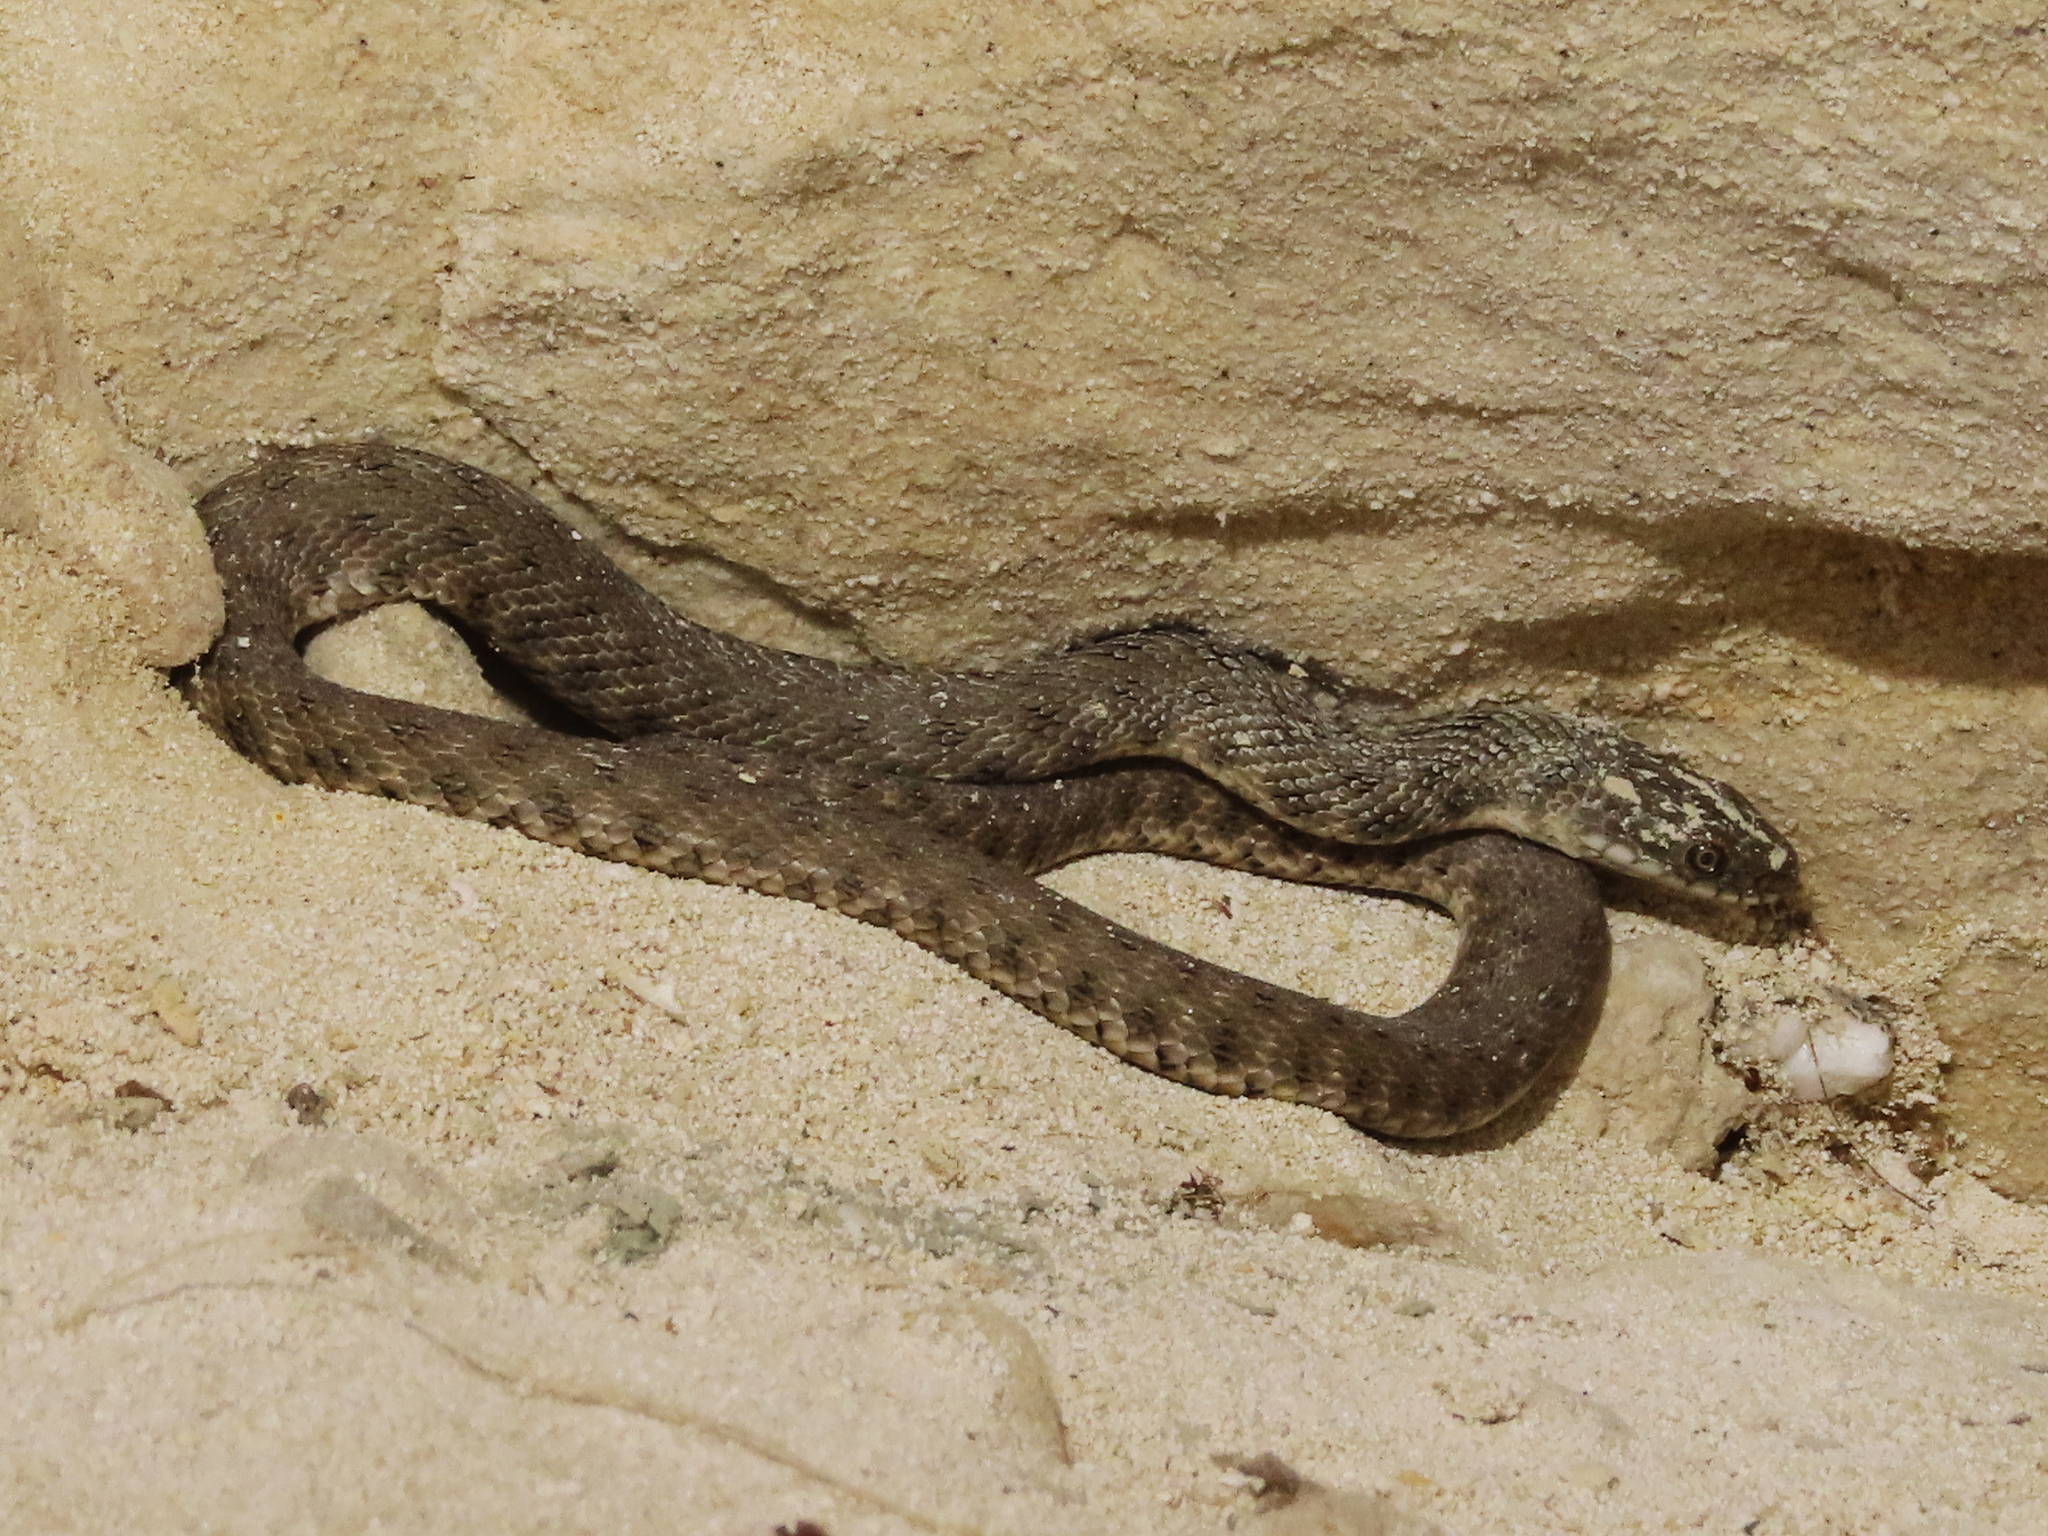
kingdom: Animalia
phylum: Chordata
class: Squamata
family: Colubridae
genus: Natrix
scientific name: Natrix tessellata
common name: Dice snake
